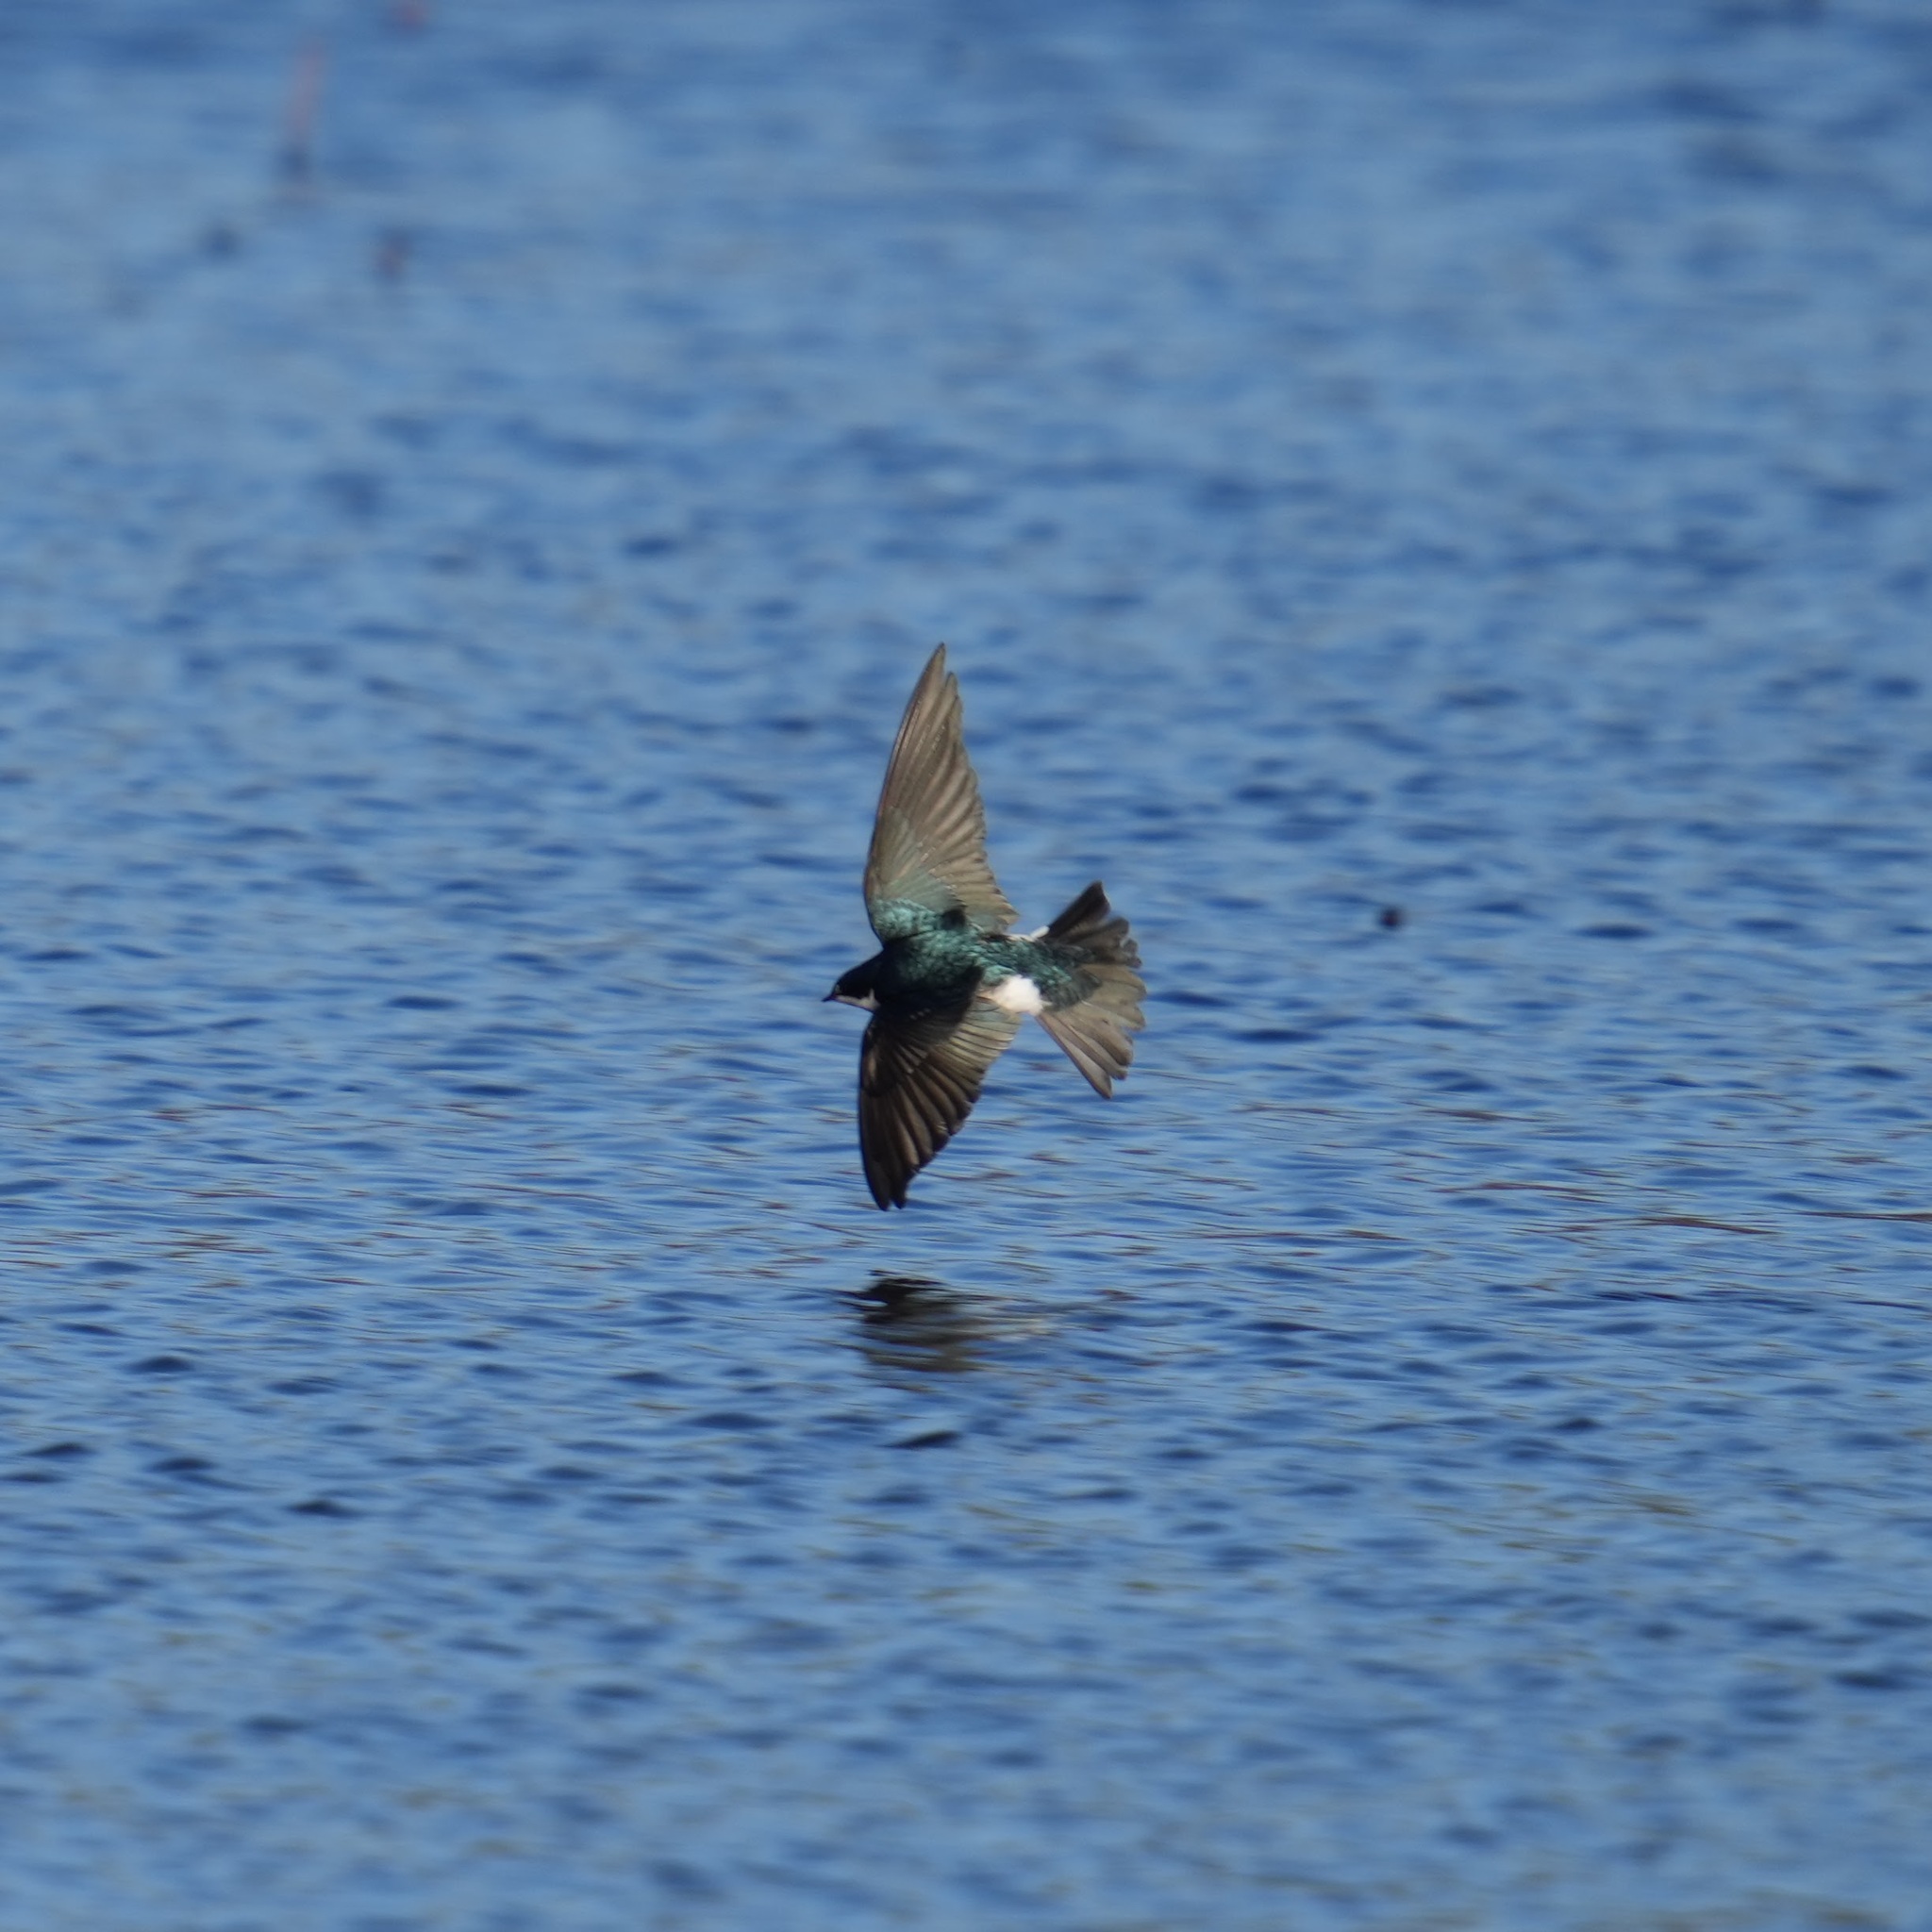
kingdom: Animalia
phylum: Chordata
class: Aves
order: Passeriformes
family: Hirundinidae
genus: Tachycineta
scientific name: Tachycineta bicolor
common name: Tree swallow
